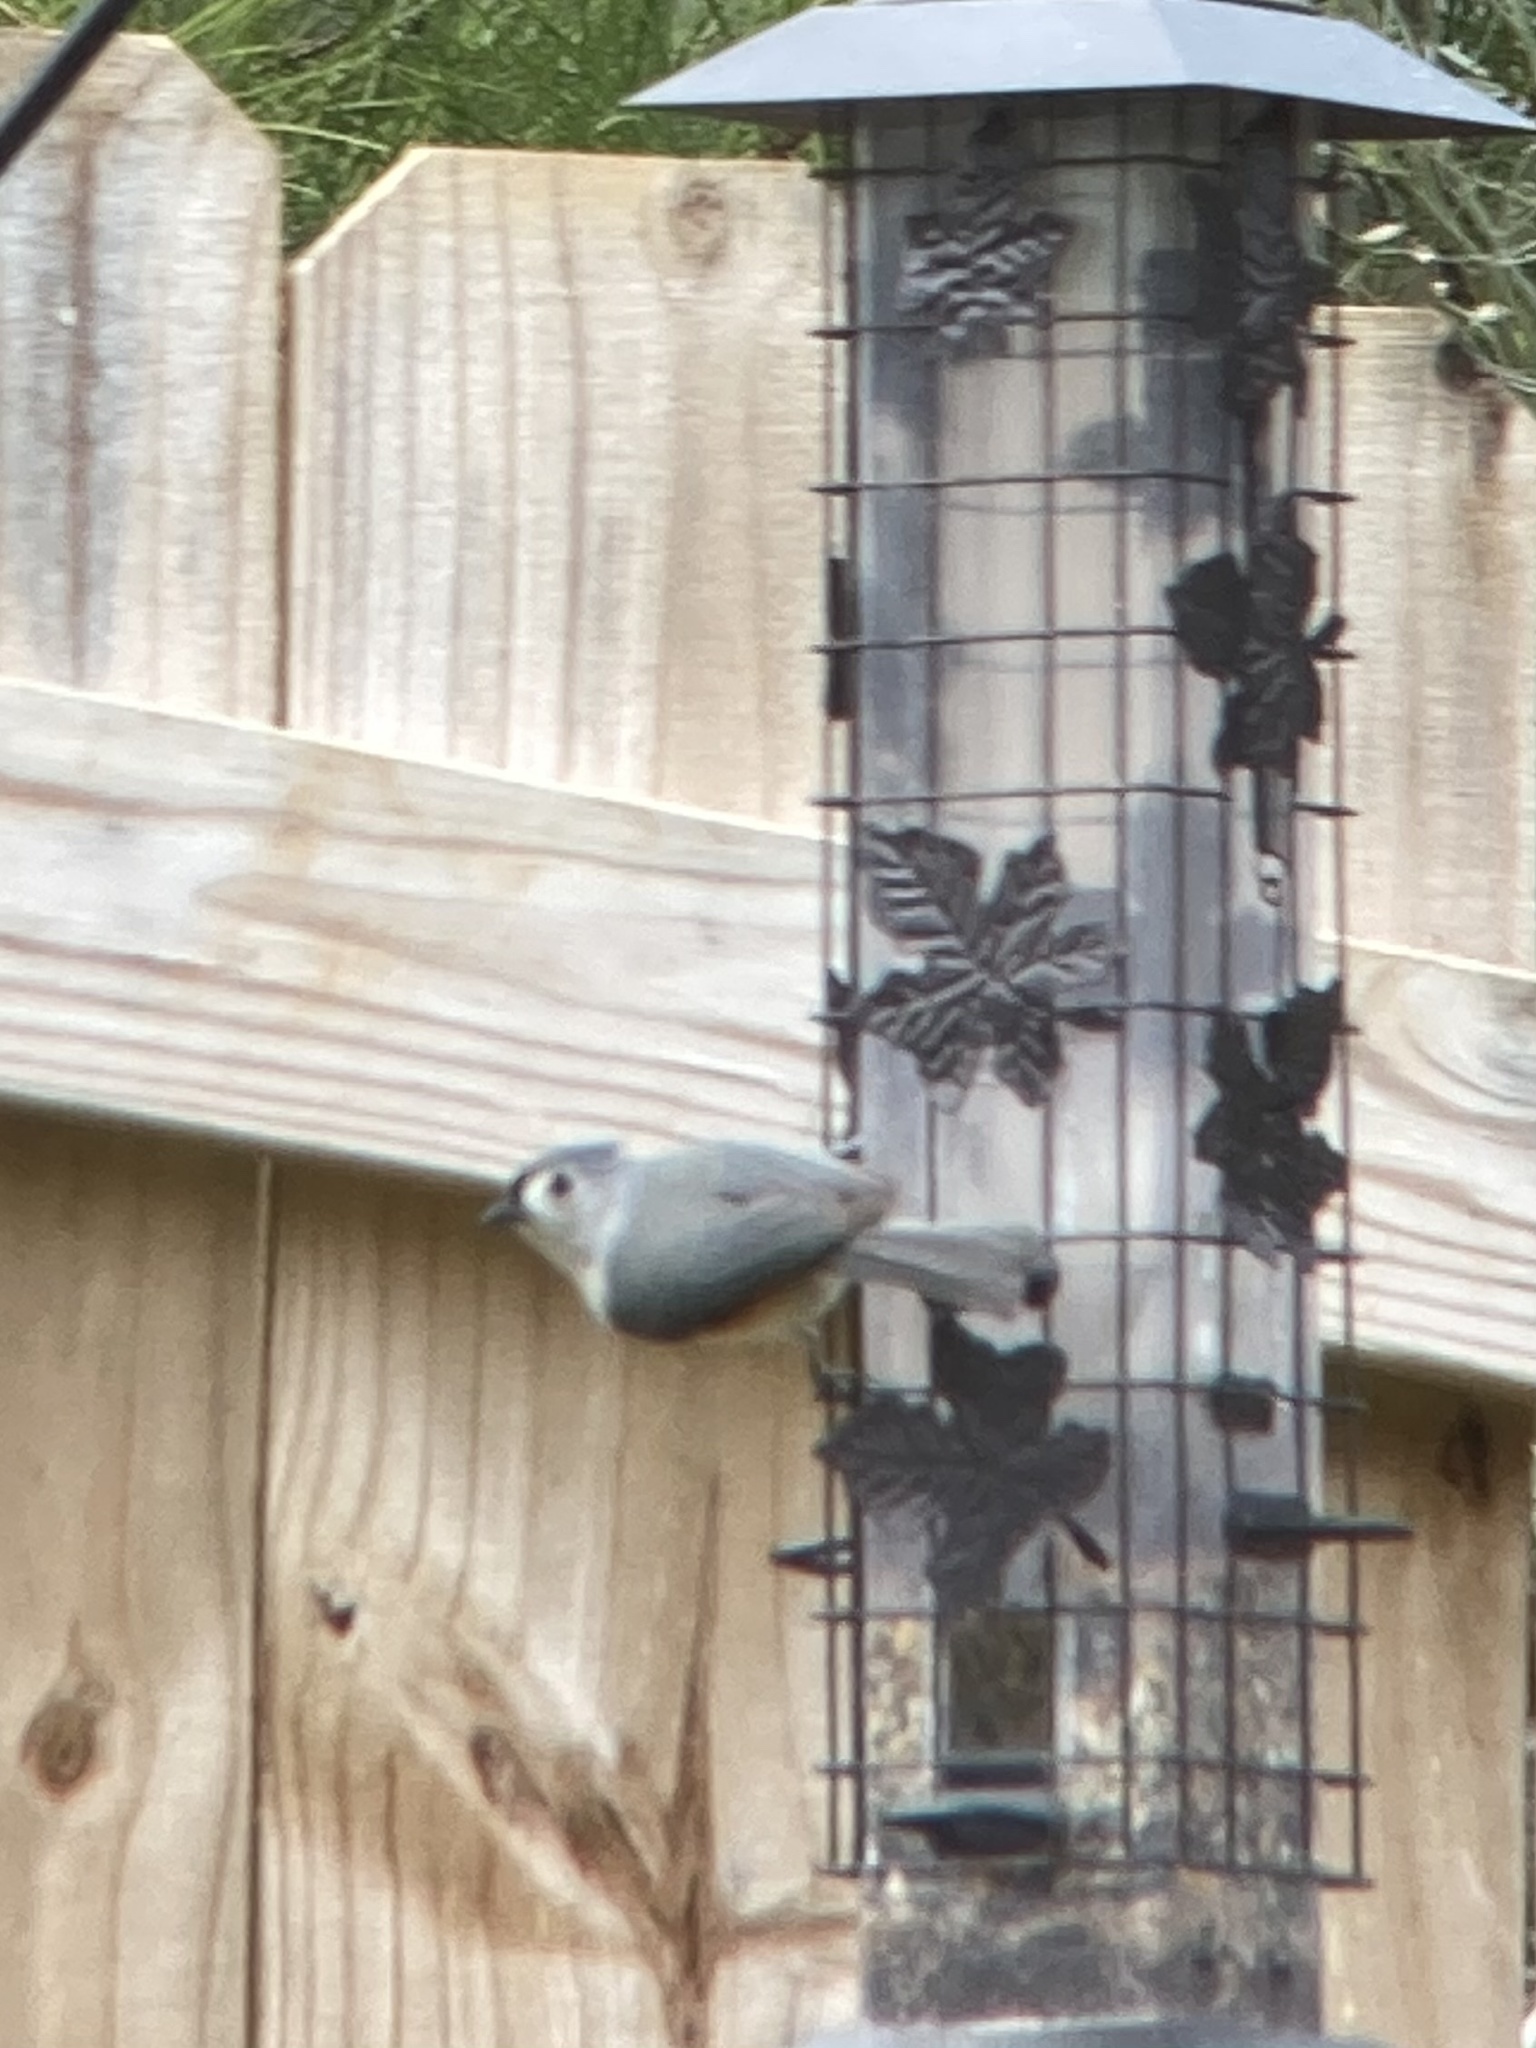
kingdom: Animalia
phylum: Chordata
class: Aves
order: Passeriformes
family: Paridae
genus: Baeolophus
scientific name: Baeolophus bicolor
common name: Tufted titmouse
